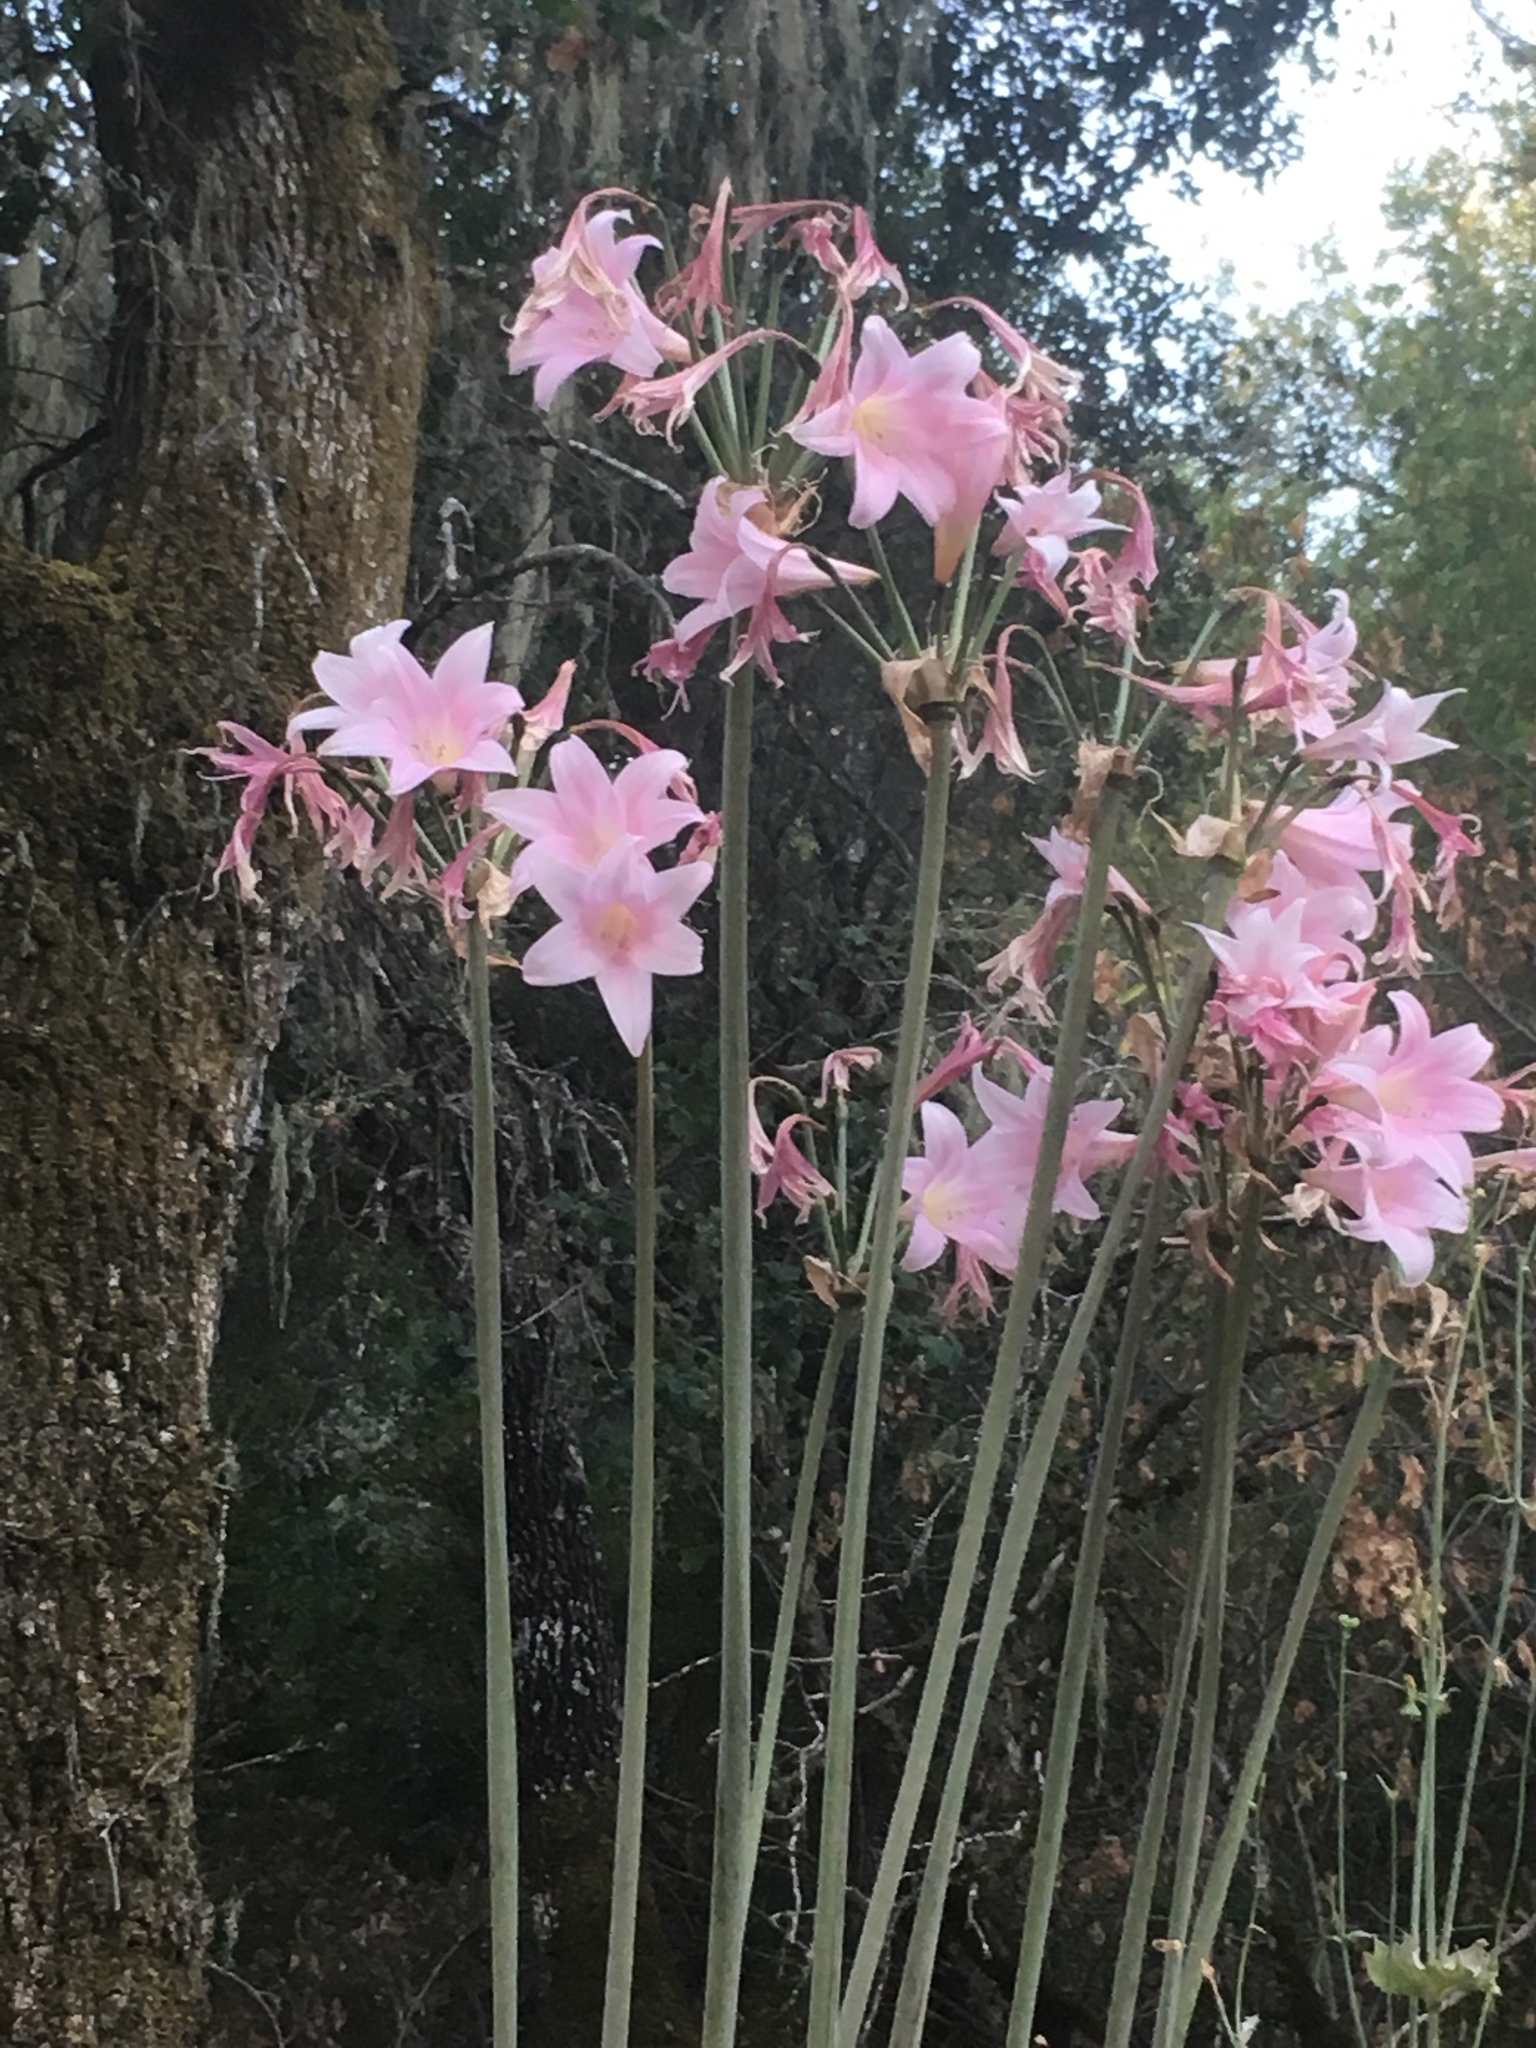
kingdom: Plantae
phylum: Tracheophyta
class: Liliopsida
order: Asparagales
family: Amaryllidaceae
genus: Amaryllis
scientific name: Amaryllis belladonna
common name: Jersey lily
